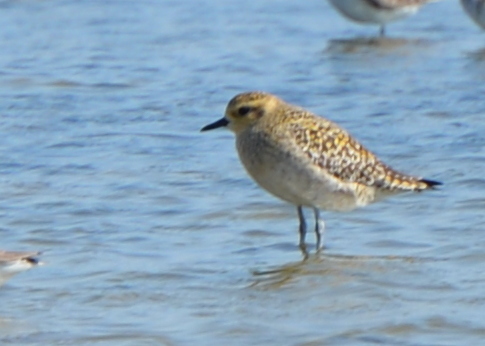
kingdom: Animalia
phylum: Chordata
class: Aves
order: Charadriiformes
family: Charadriidae
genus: Pluvialis
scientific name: Pluvialis fulva
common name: Pacific golden plover
